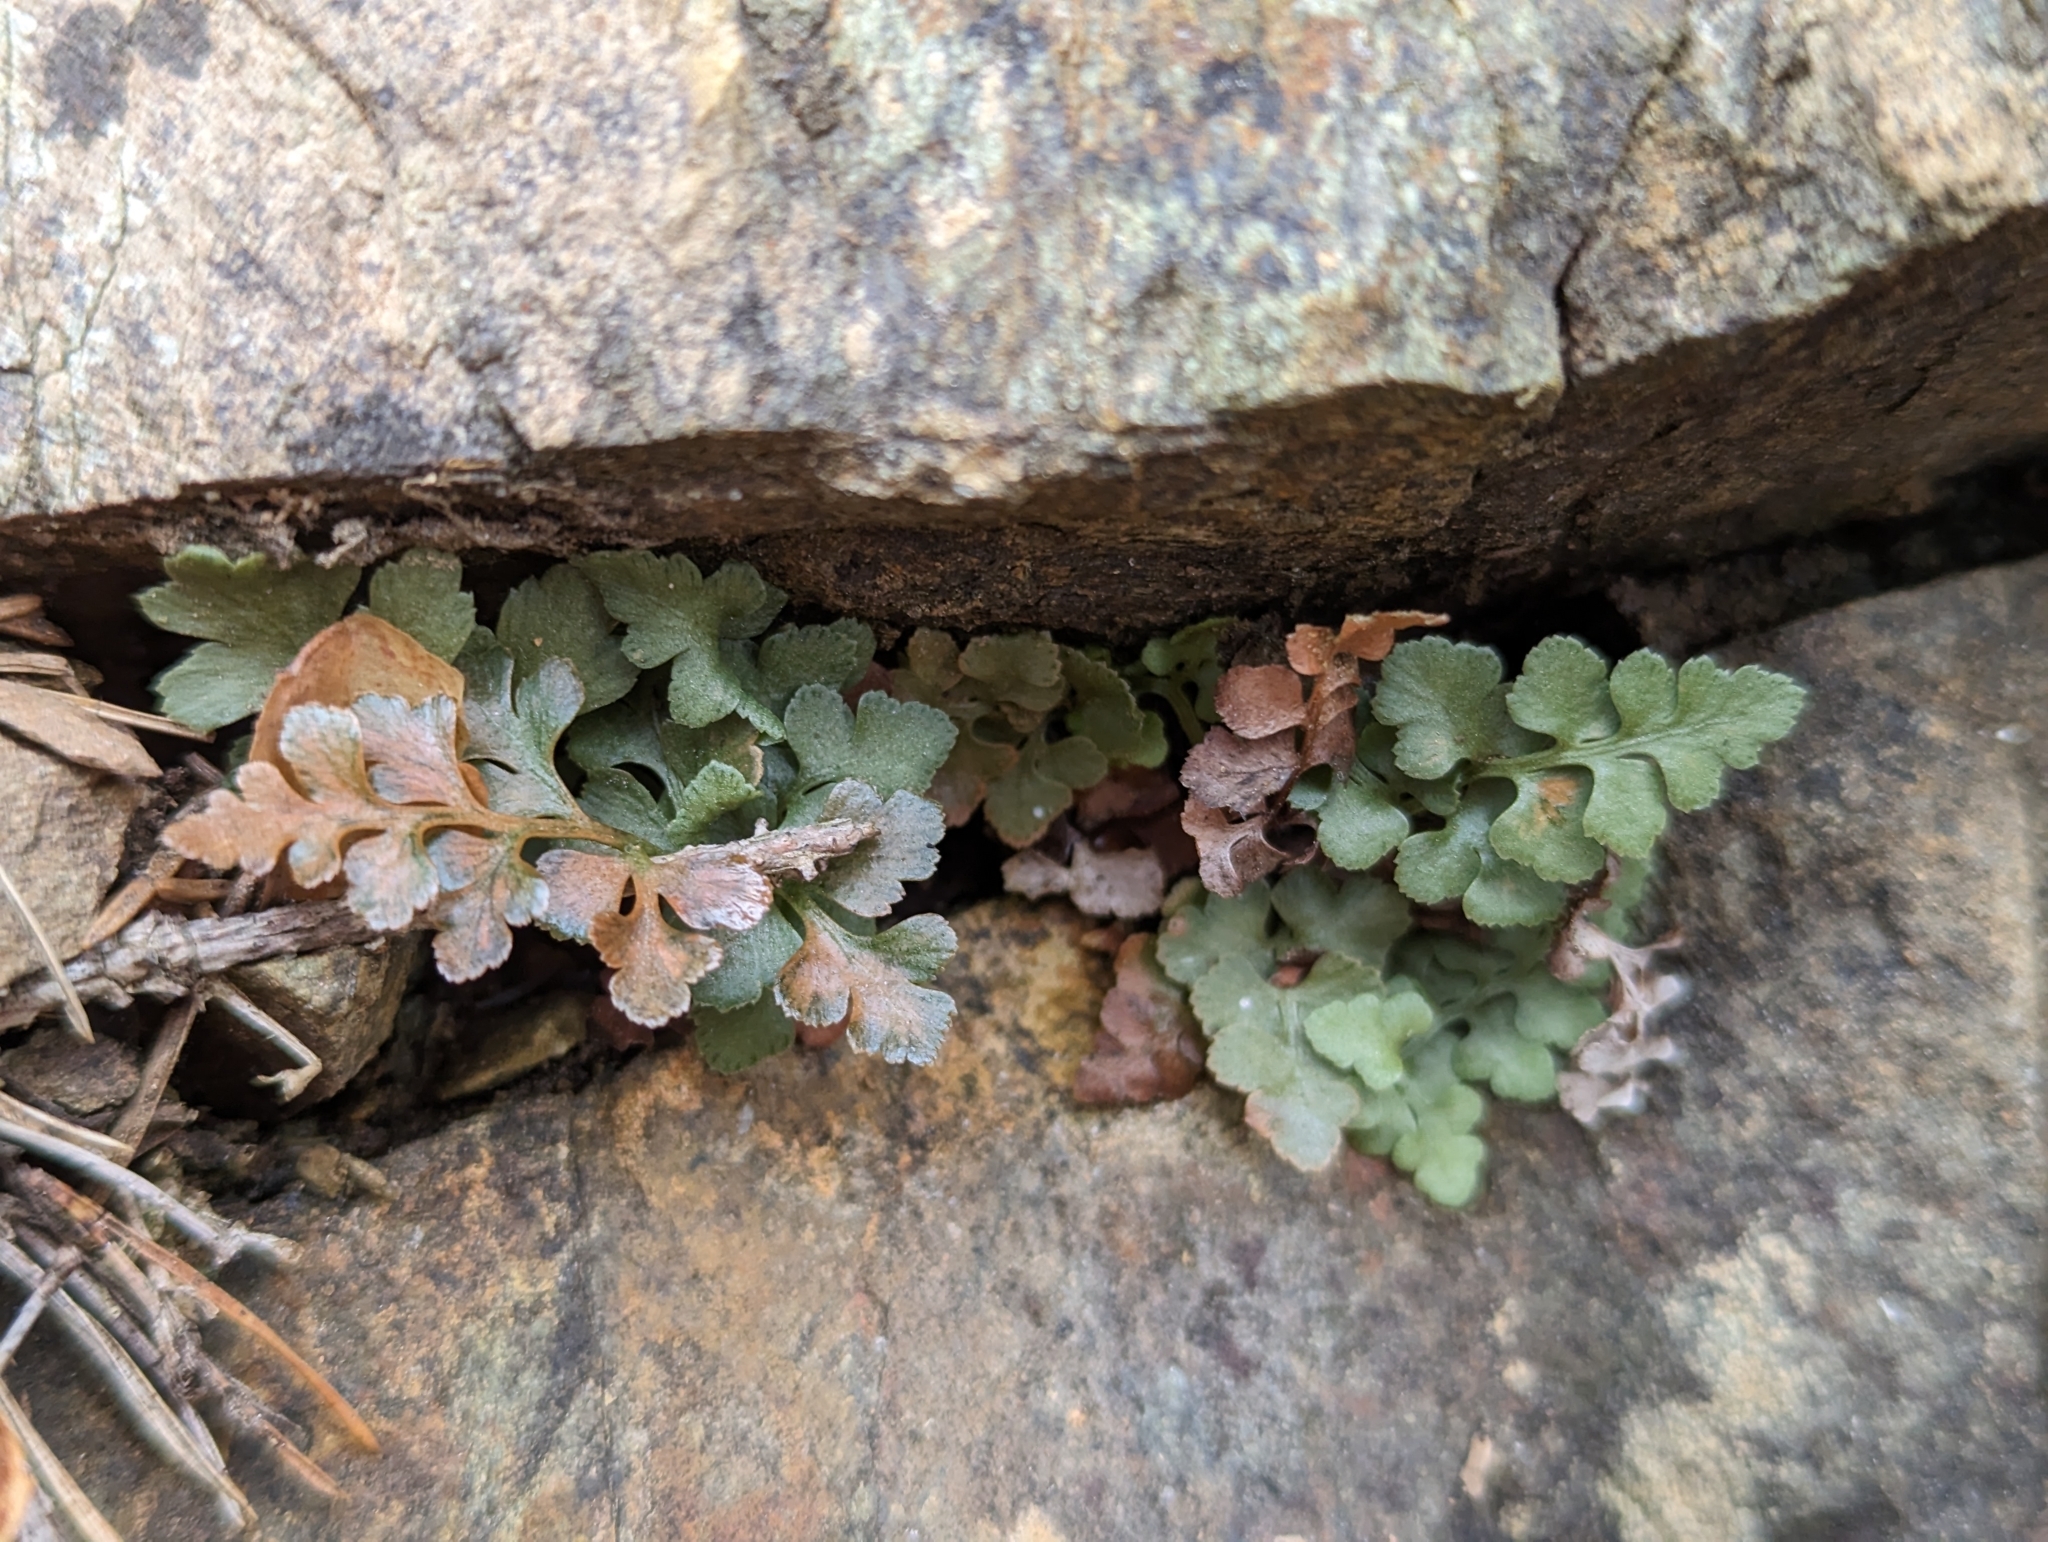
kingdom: Plantae
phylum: Tracheophyta
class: Polypodiopsida
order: Polypodiales
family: Aspleniaceae
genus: Asplenium
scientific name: Asplenium ruta-muraria
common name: Wall-rue
